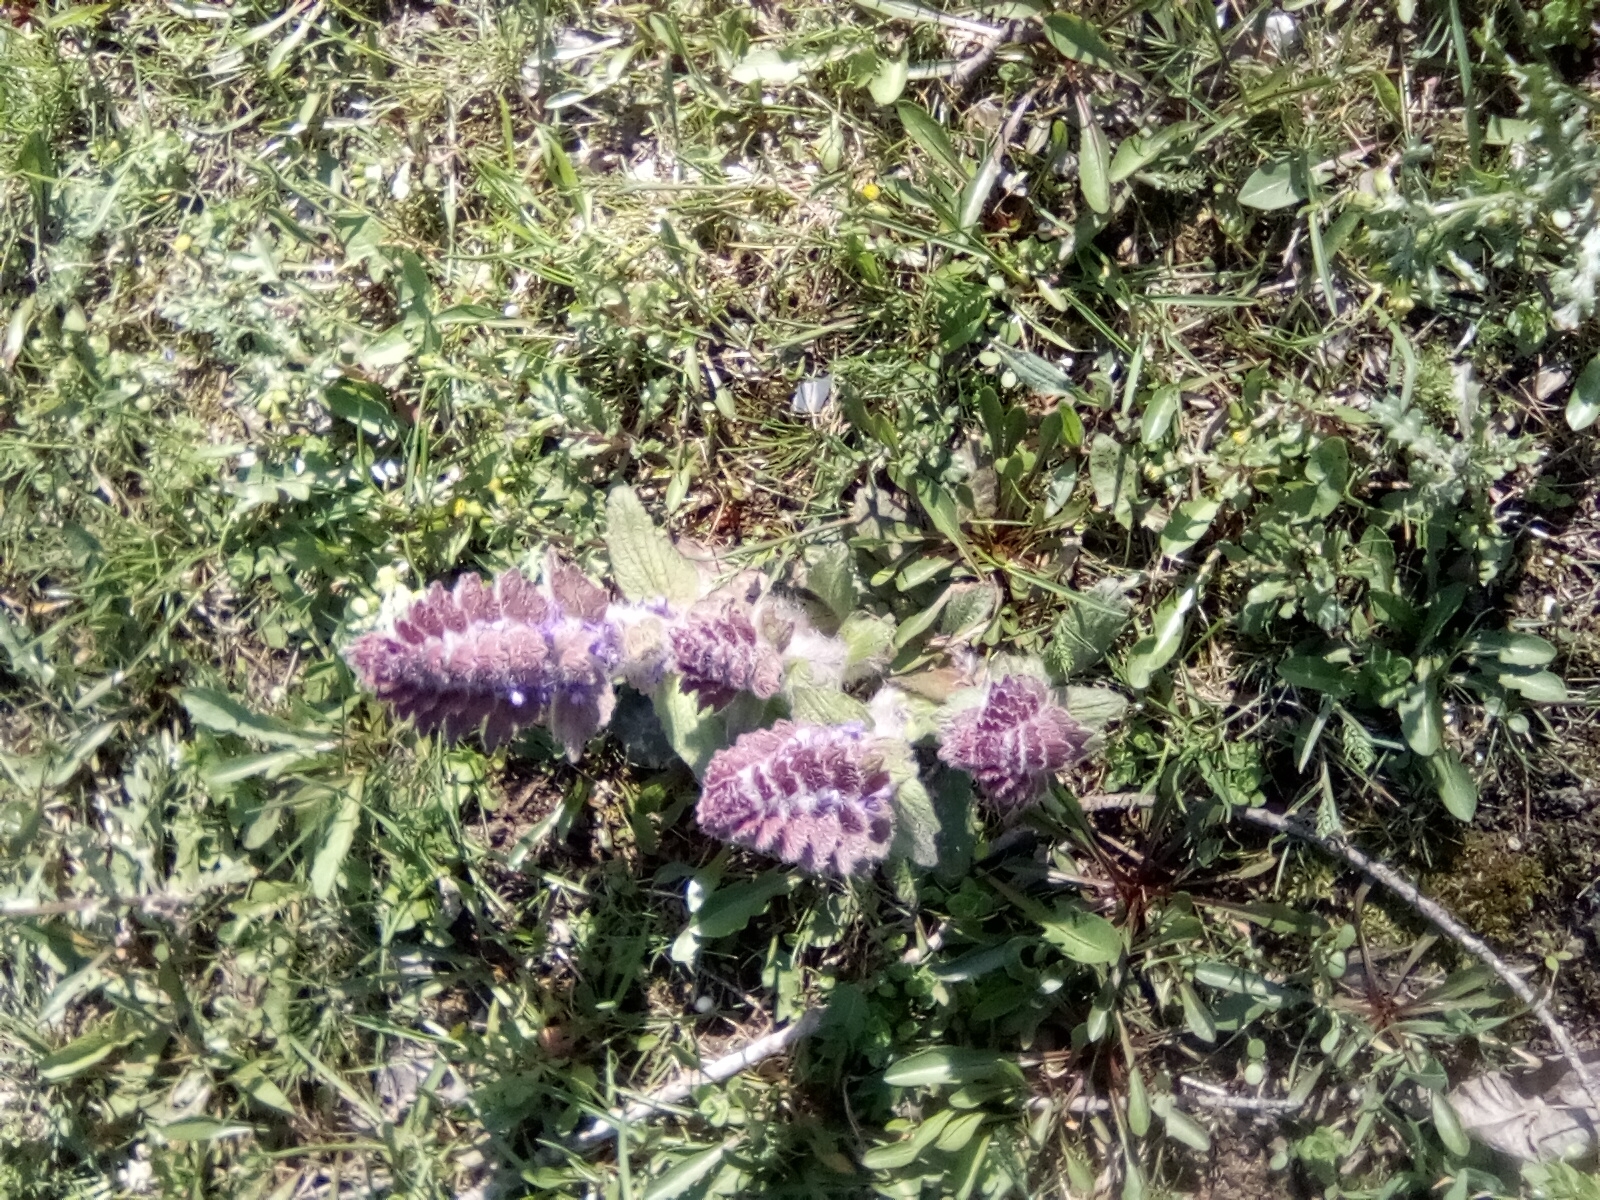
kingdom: Plantae
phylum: Tracheophyta
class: Magnoliopsida
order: Lamiales
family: Lamiaceae
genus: Ajuga
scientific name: Ajuga orientalis
